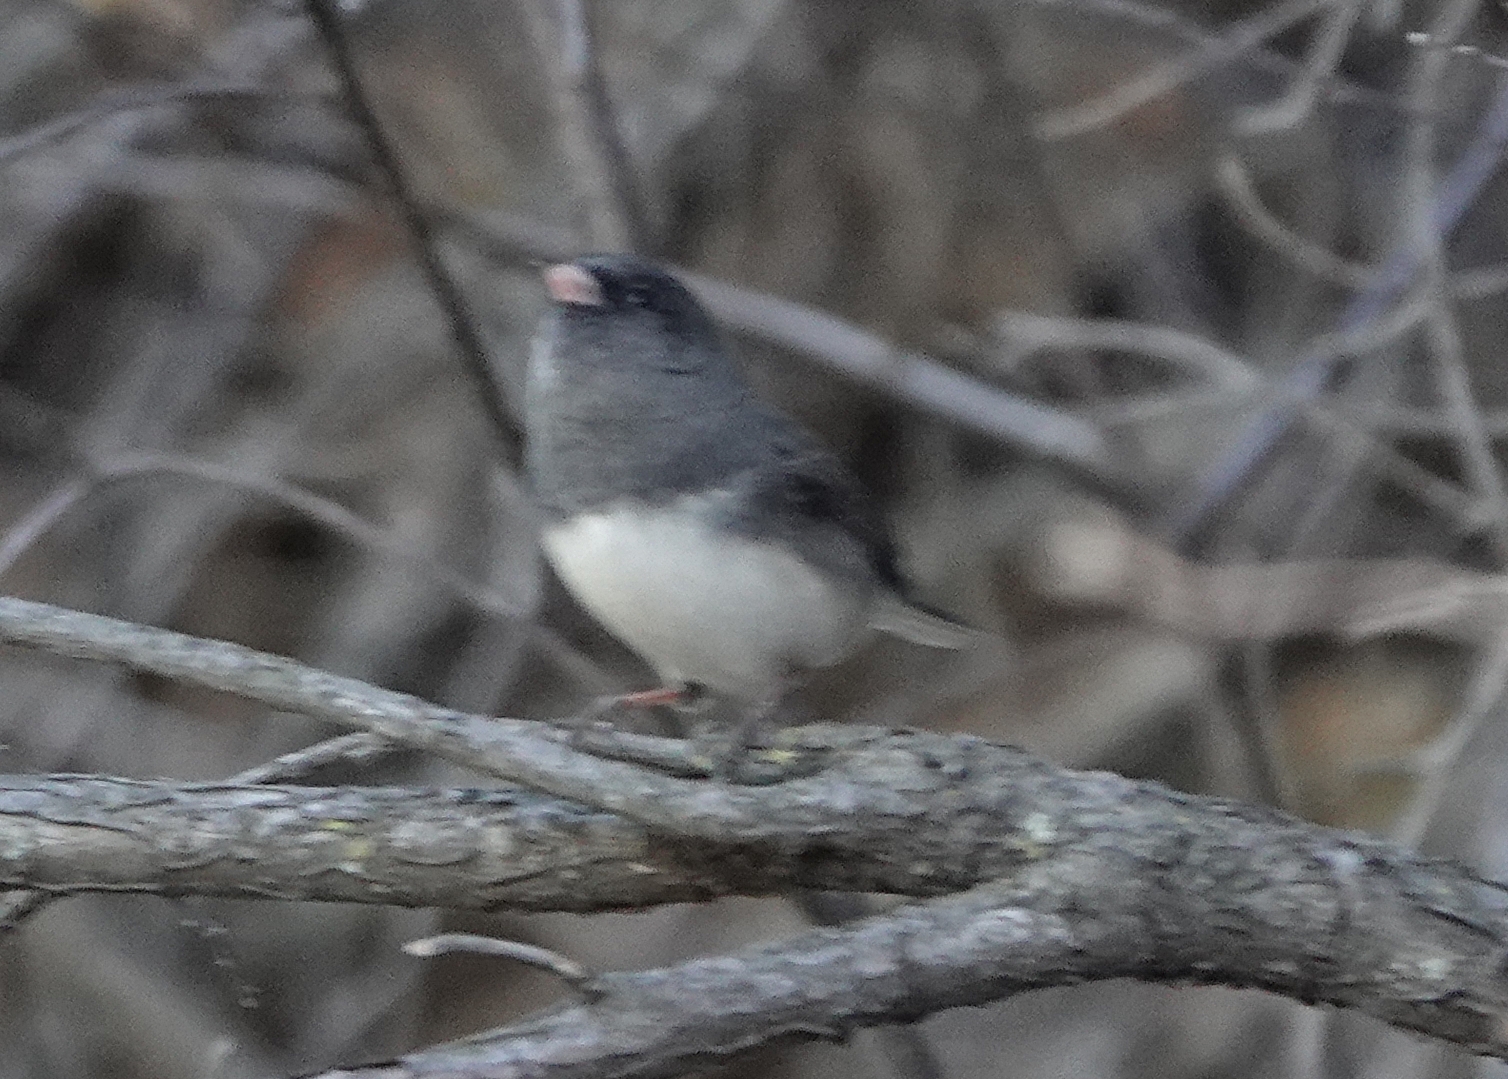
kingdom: Animalia
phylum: Chordata
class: Aves
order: Passeriformes
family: Passerellidae
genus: Junco
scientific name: Junco hyemalis
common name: Dark-eyed junco
